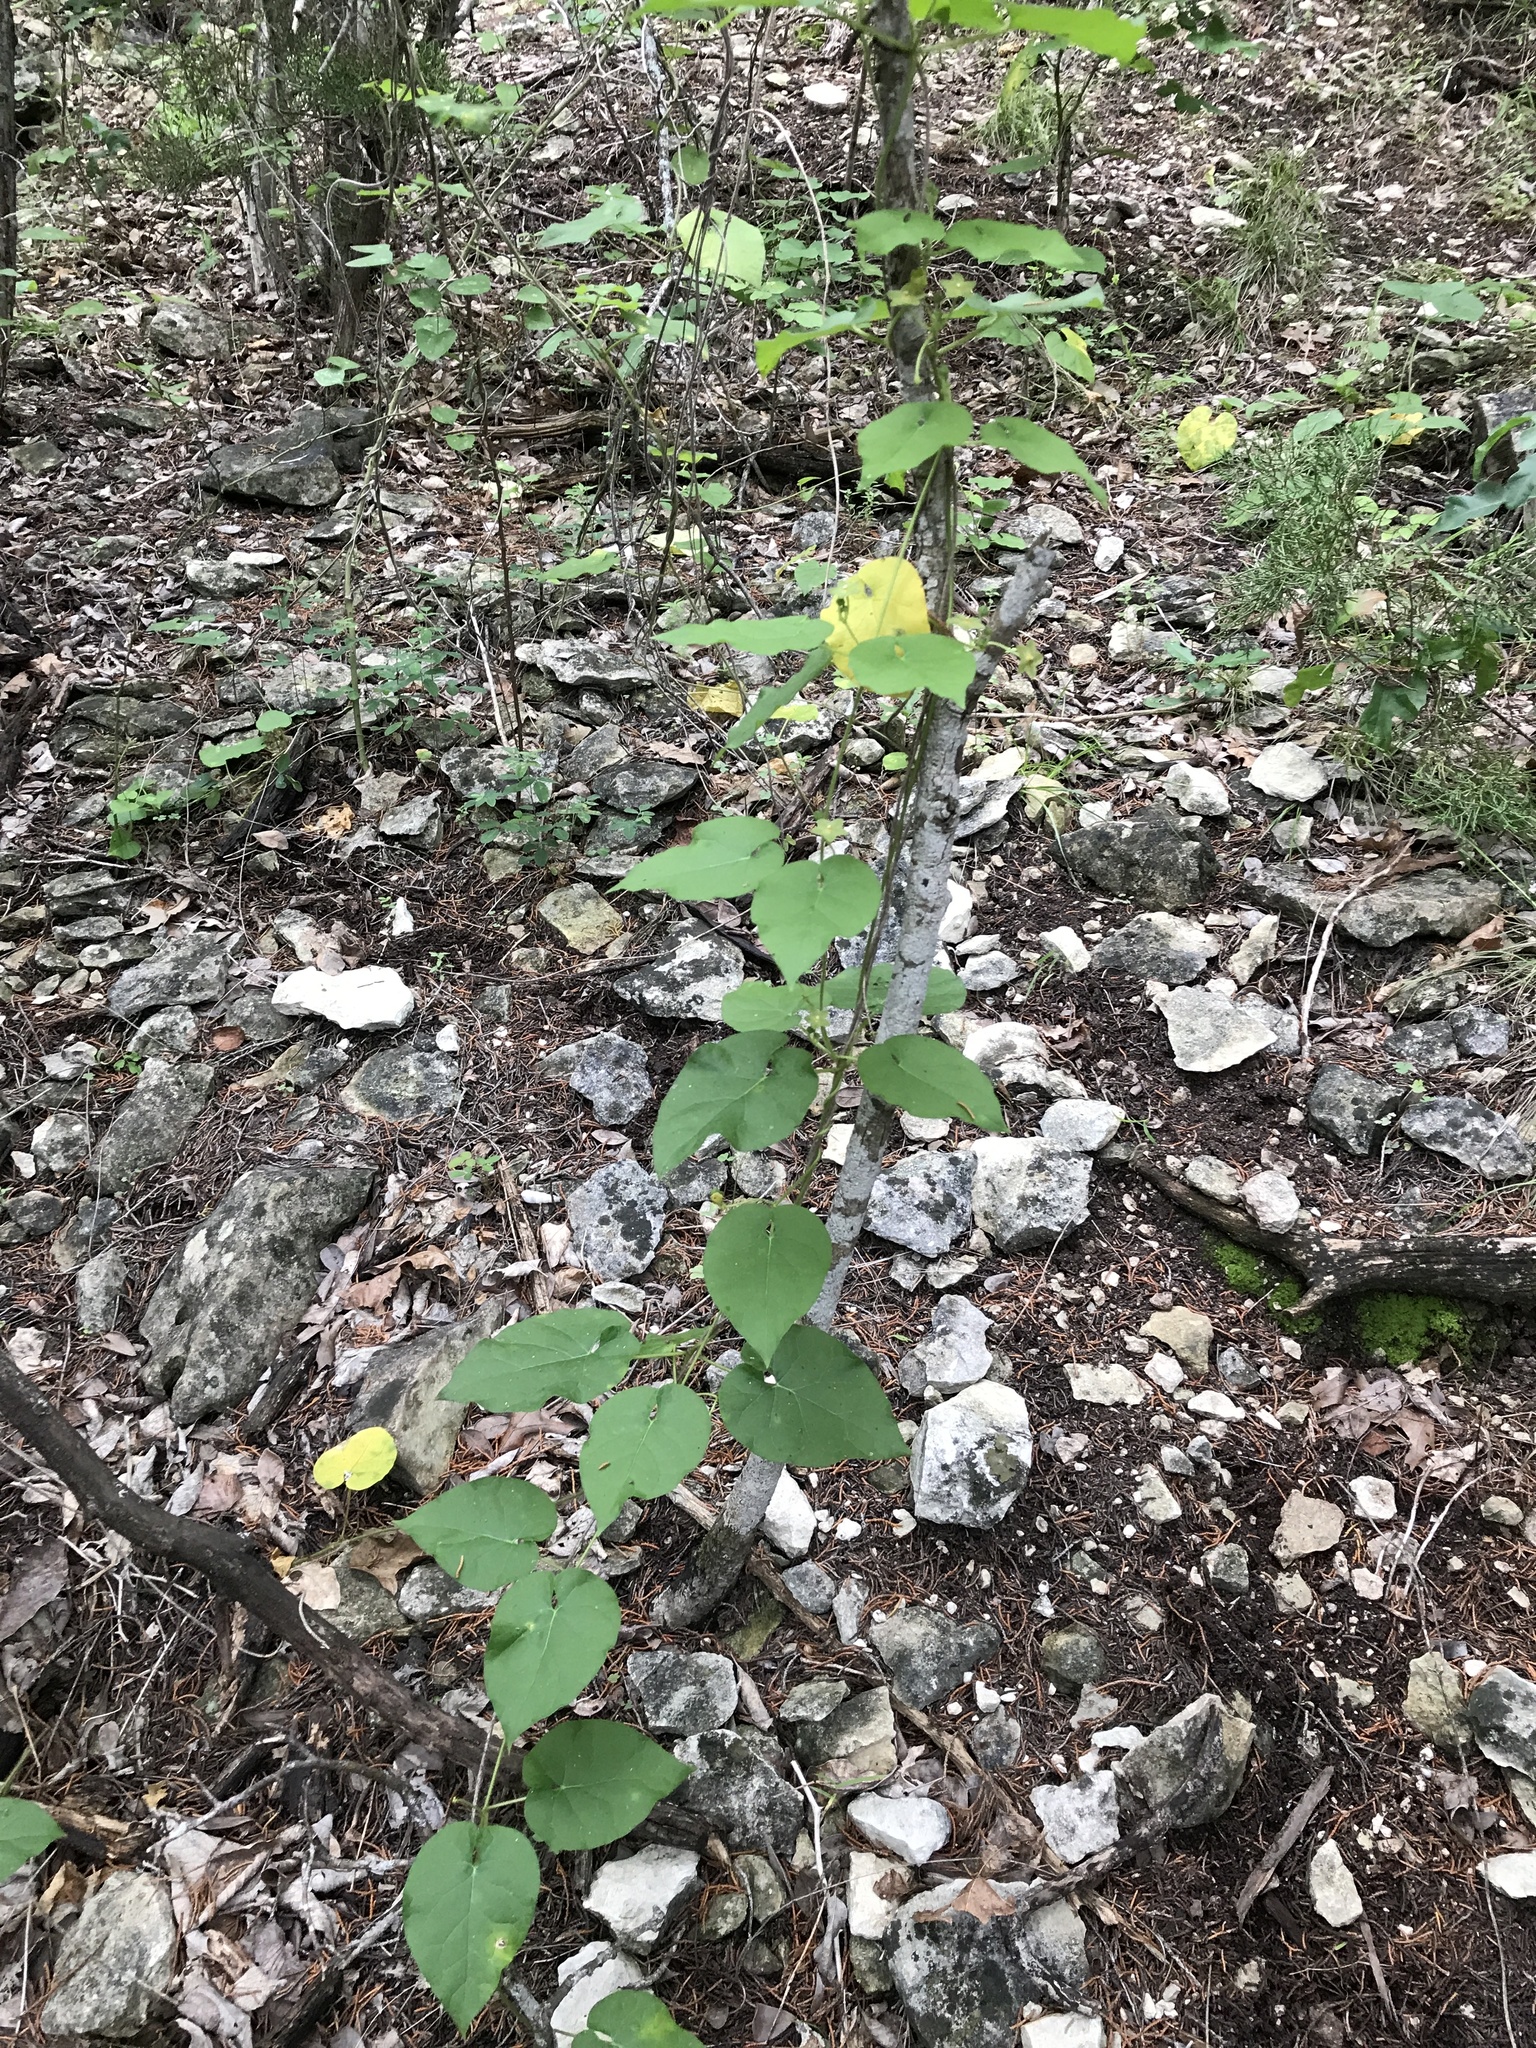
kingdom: Plantae
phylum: Tracheophyta
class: Magnoliopsida
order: Gentianales
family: Apocynaceae
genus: Dictyanthus
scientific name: Dictyanthus reticulatus
